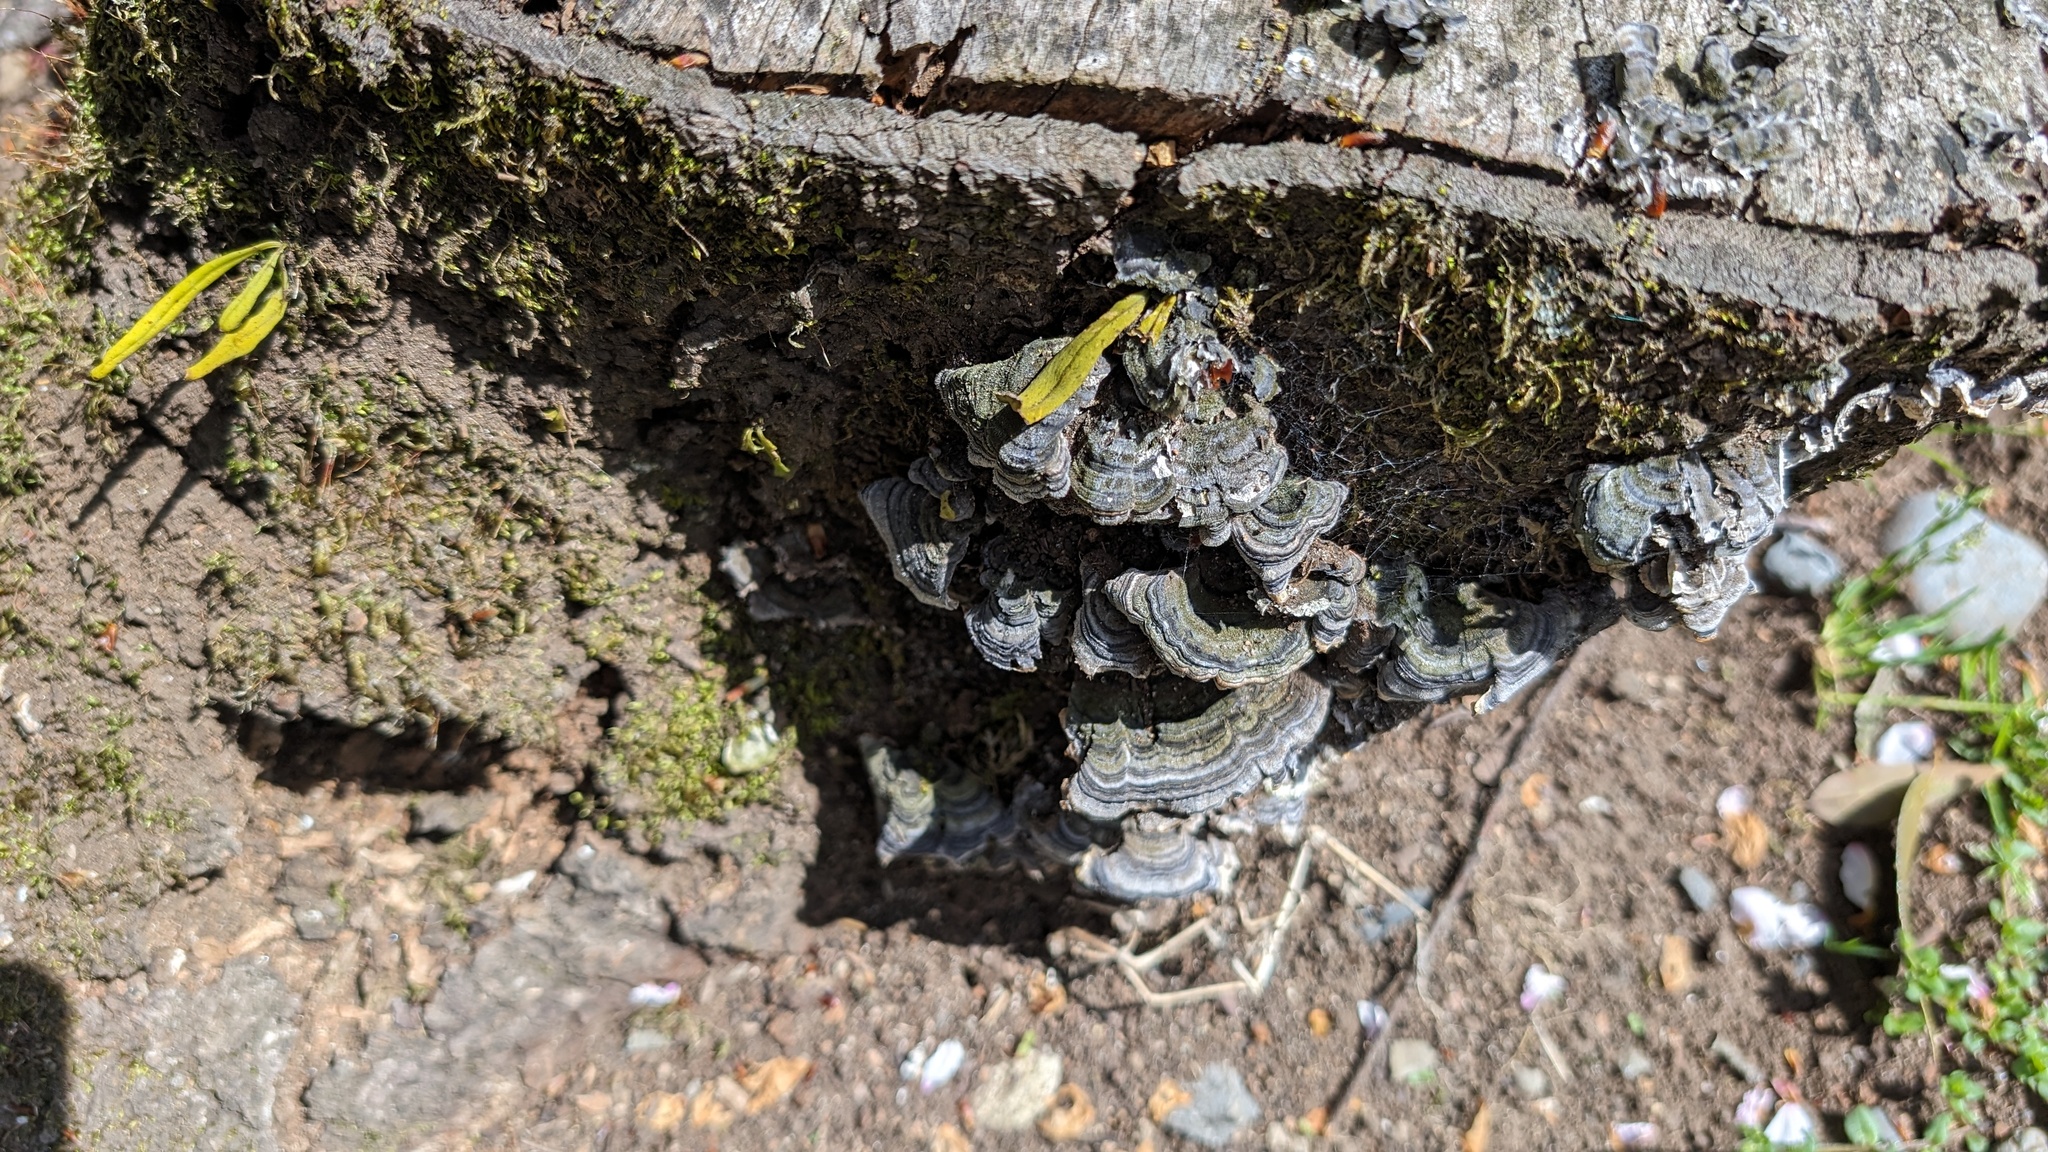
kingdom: Fungi
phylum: Basidiomycota
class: Agaricomycetes
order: Polyporales
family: Polyporaceae
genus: Trametes
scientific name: Trametes versicolor
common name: Turkeytail
